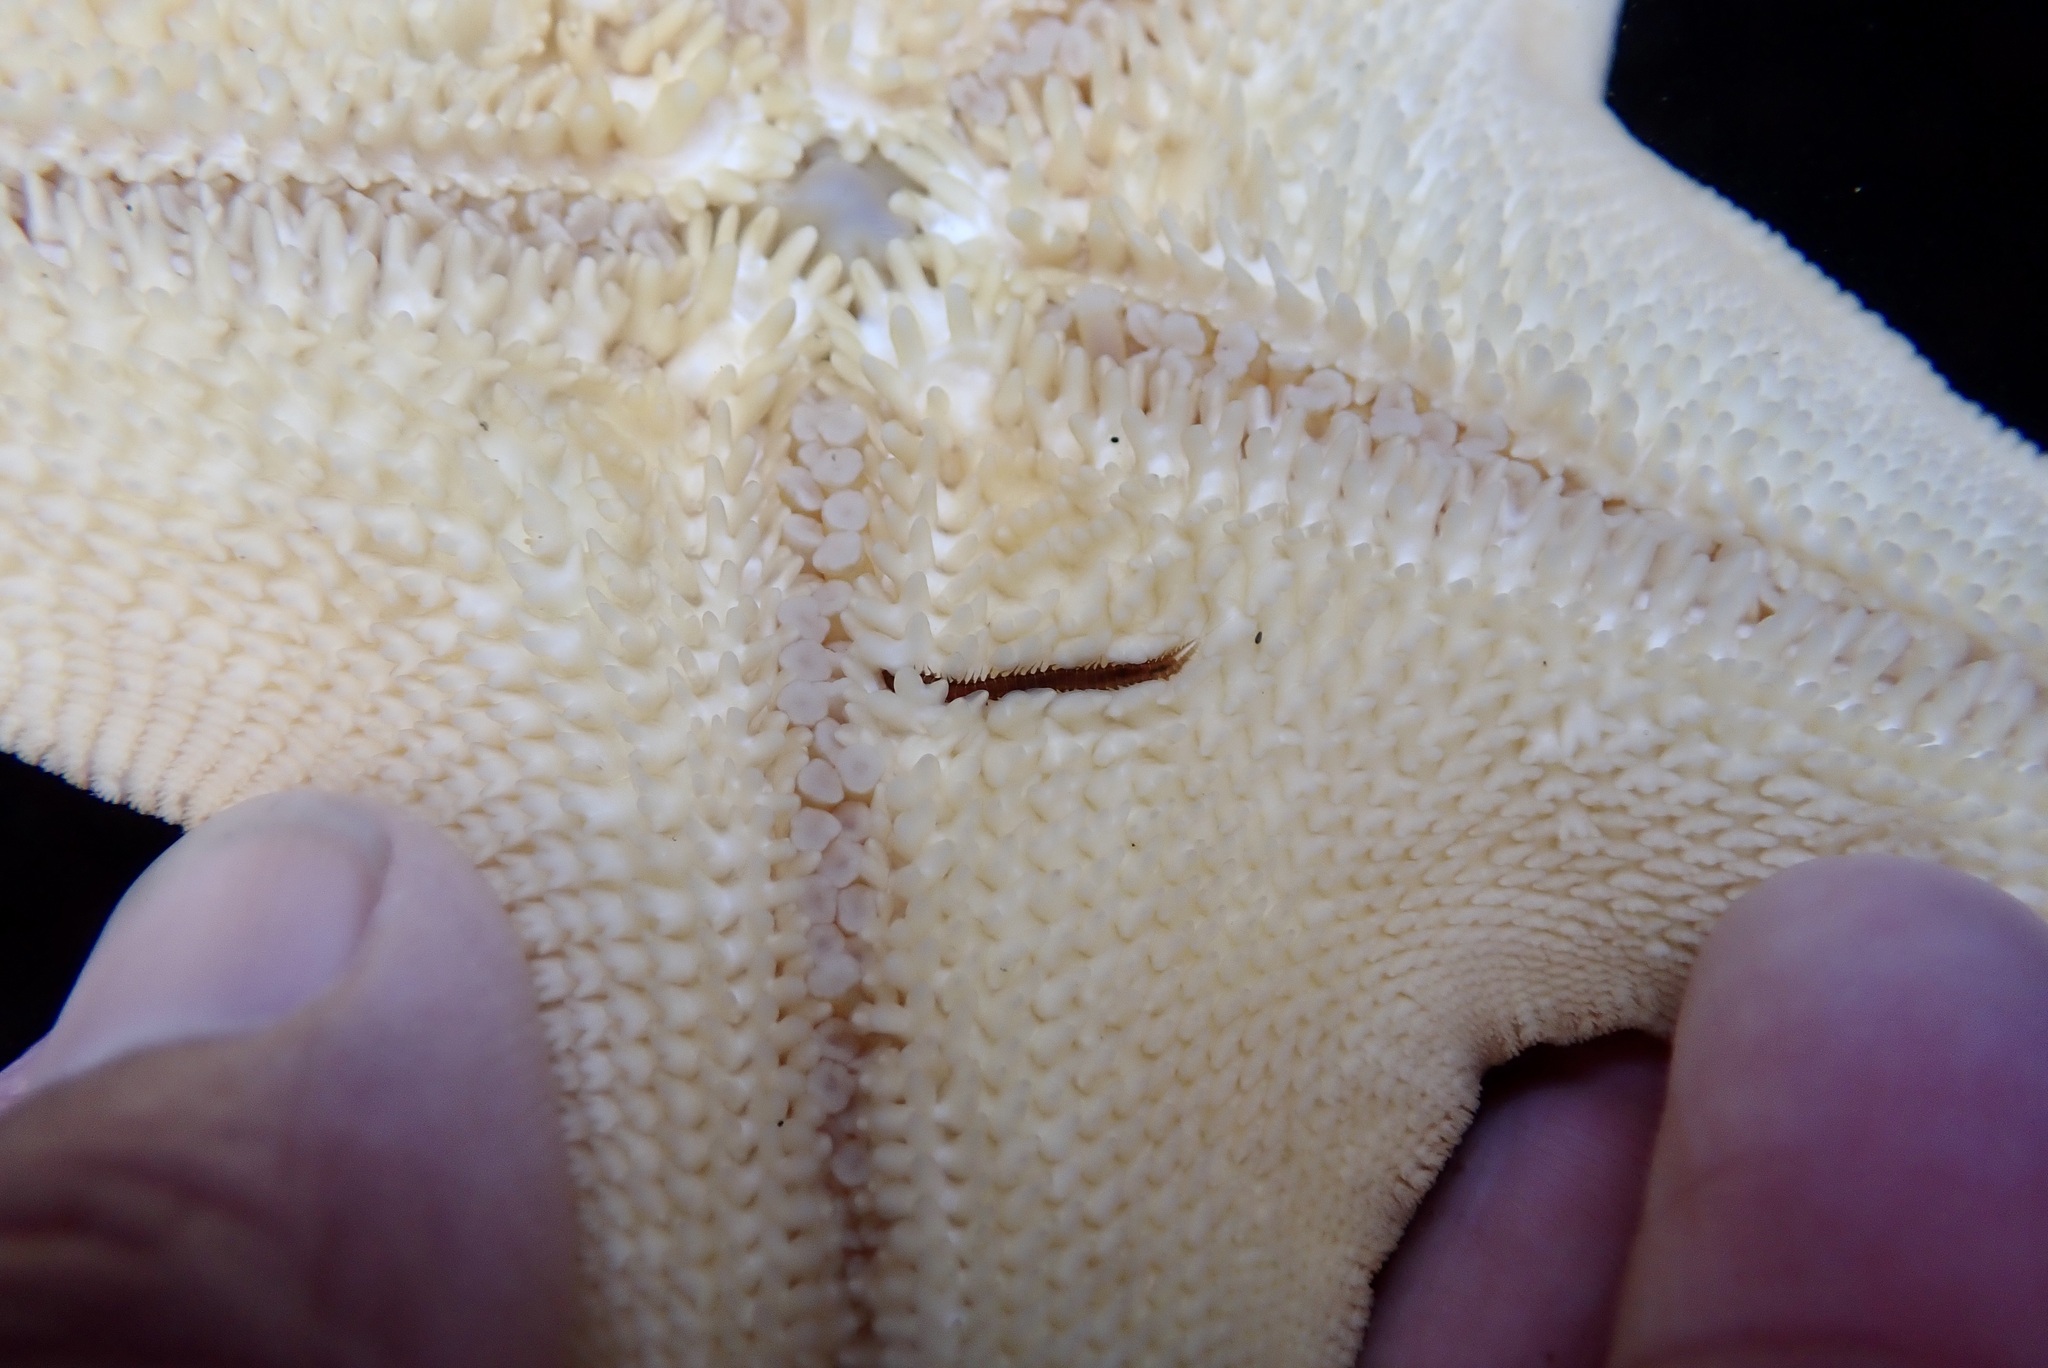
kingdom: Animalia
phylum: Annelida
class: Polychaeta
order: Phyllodocida
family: Hesionidae
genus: Oxydromus
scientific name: Oxydromus pugettensis
